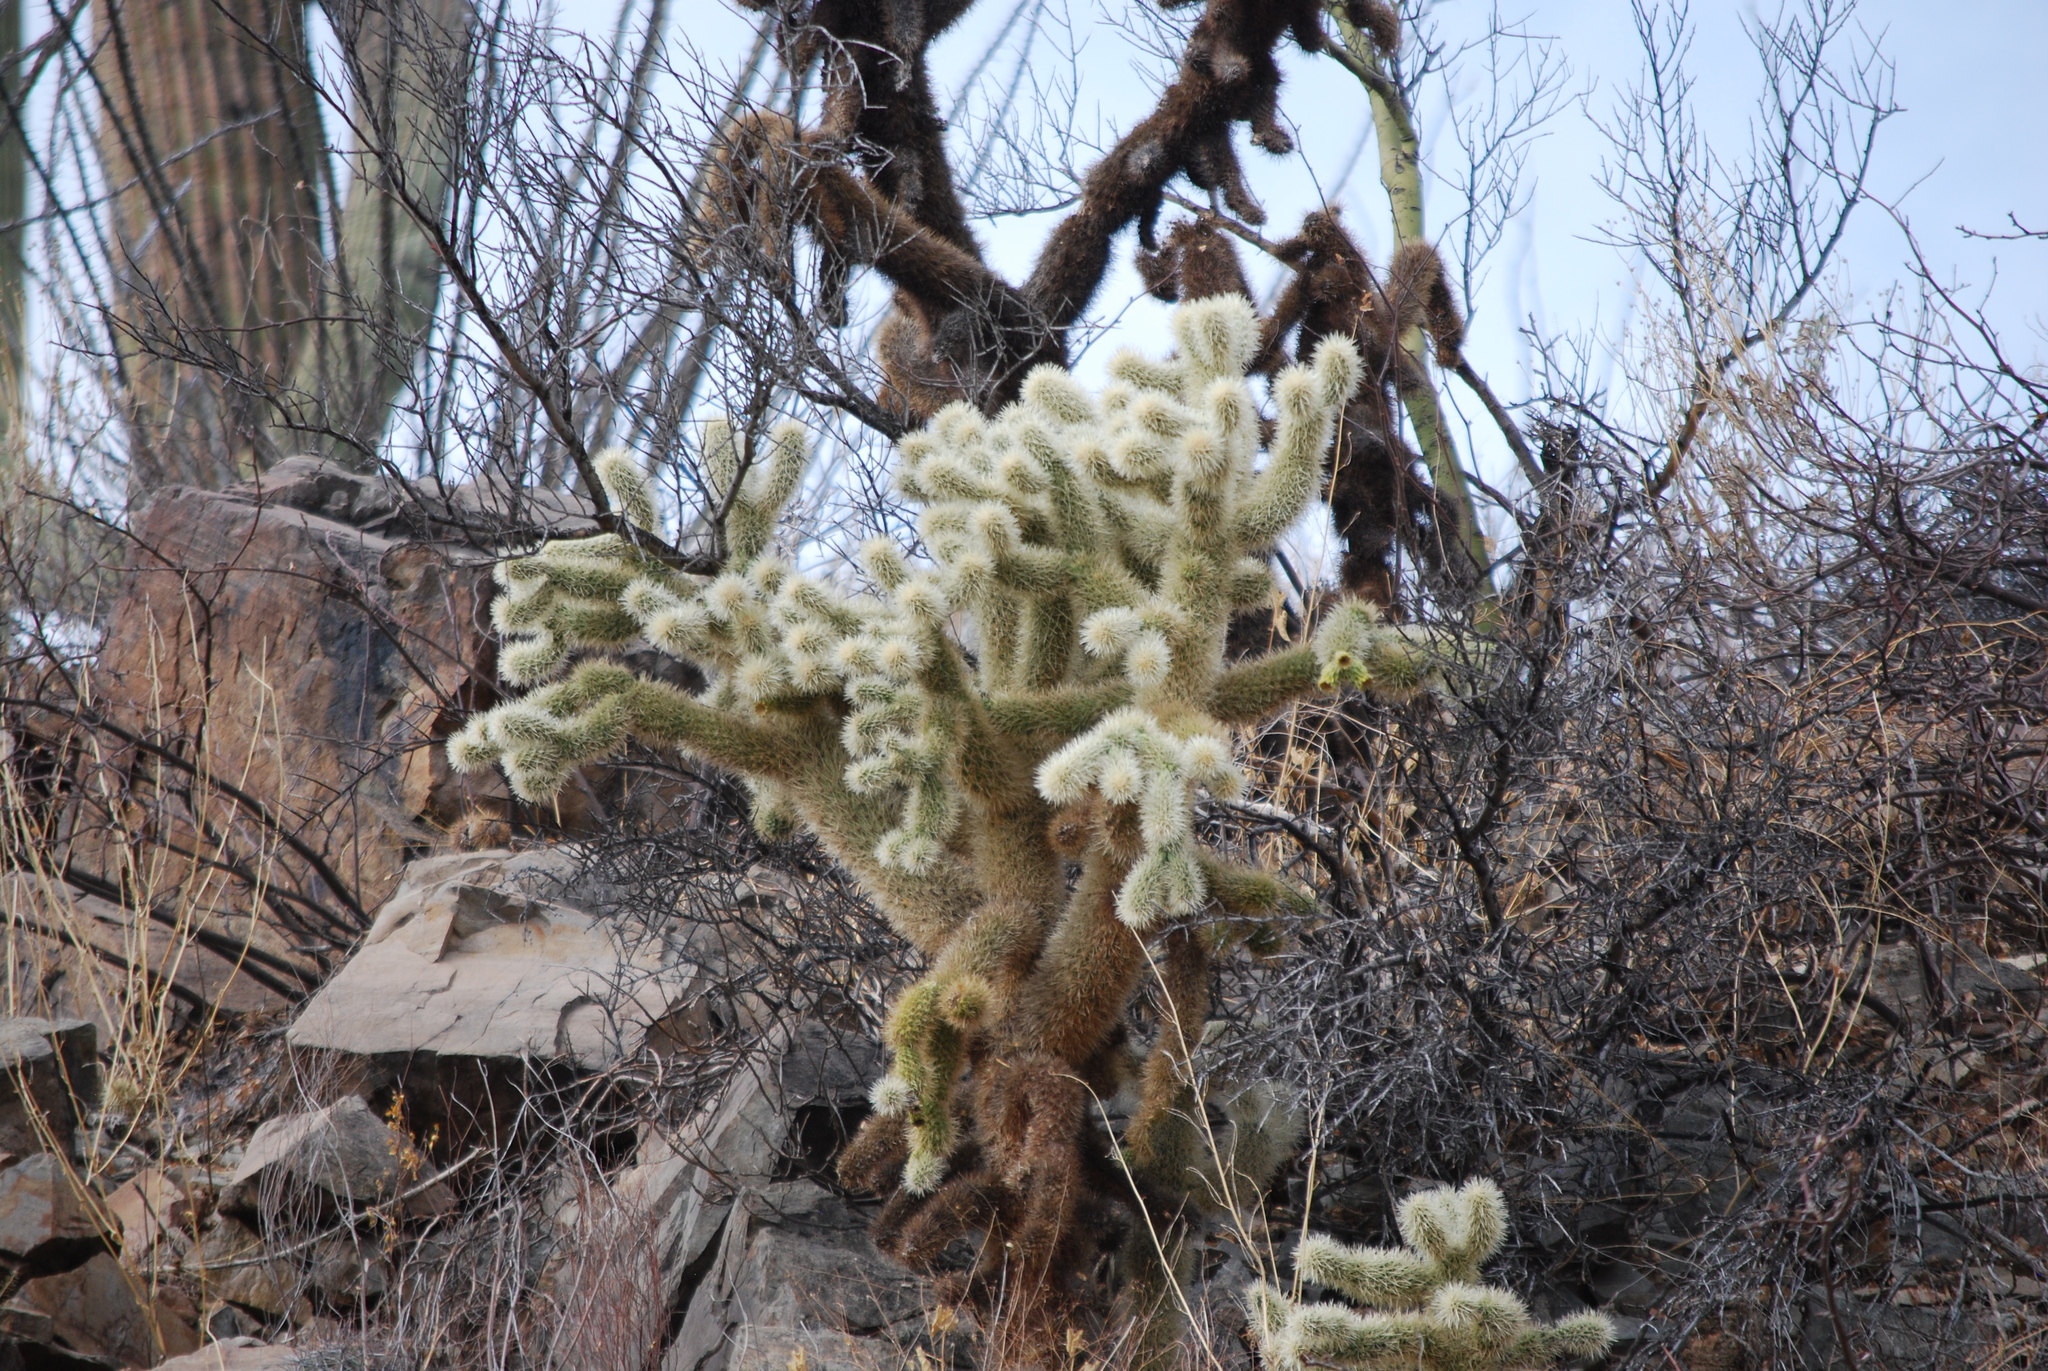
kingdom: Plantae
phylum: Tracheophyta
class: Magnoliopsida
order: Caryophyllales
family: Cactaceae
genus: Cylindropuntia
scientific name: Cylindropuntia fosbergii
